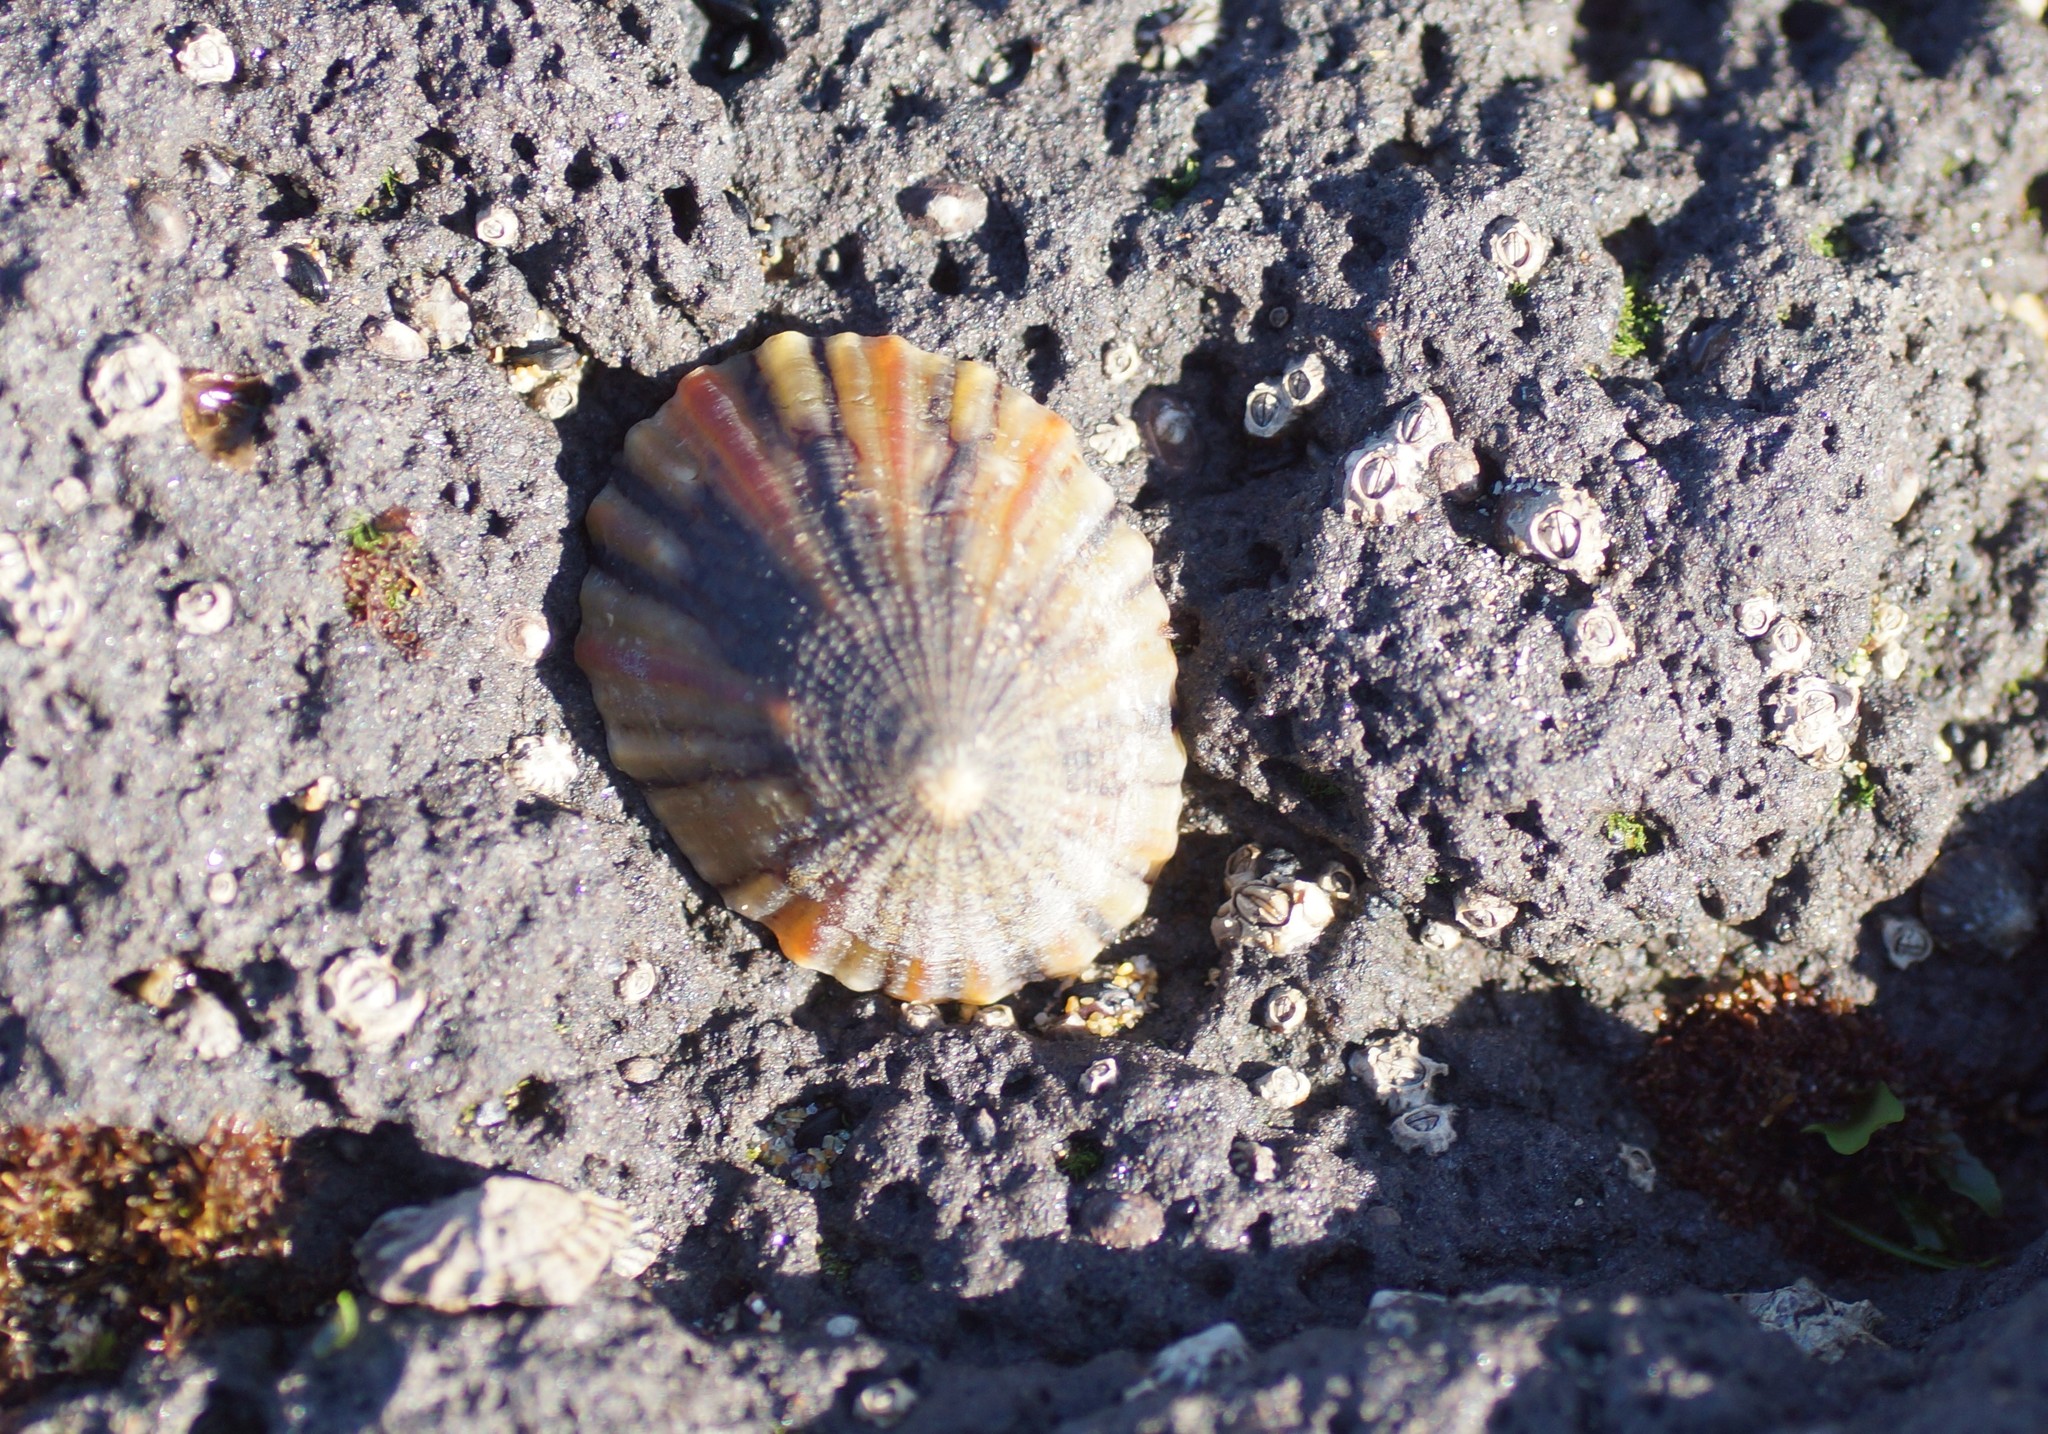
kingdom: Animalia
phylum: Mollusca
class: Gastropoda
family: Nacellidae
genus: Cellana
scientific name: Cellana tramoserica
